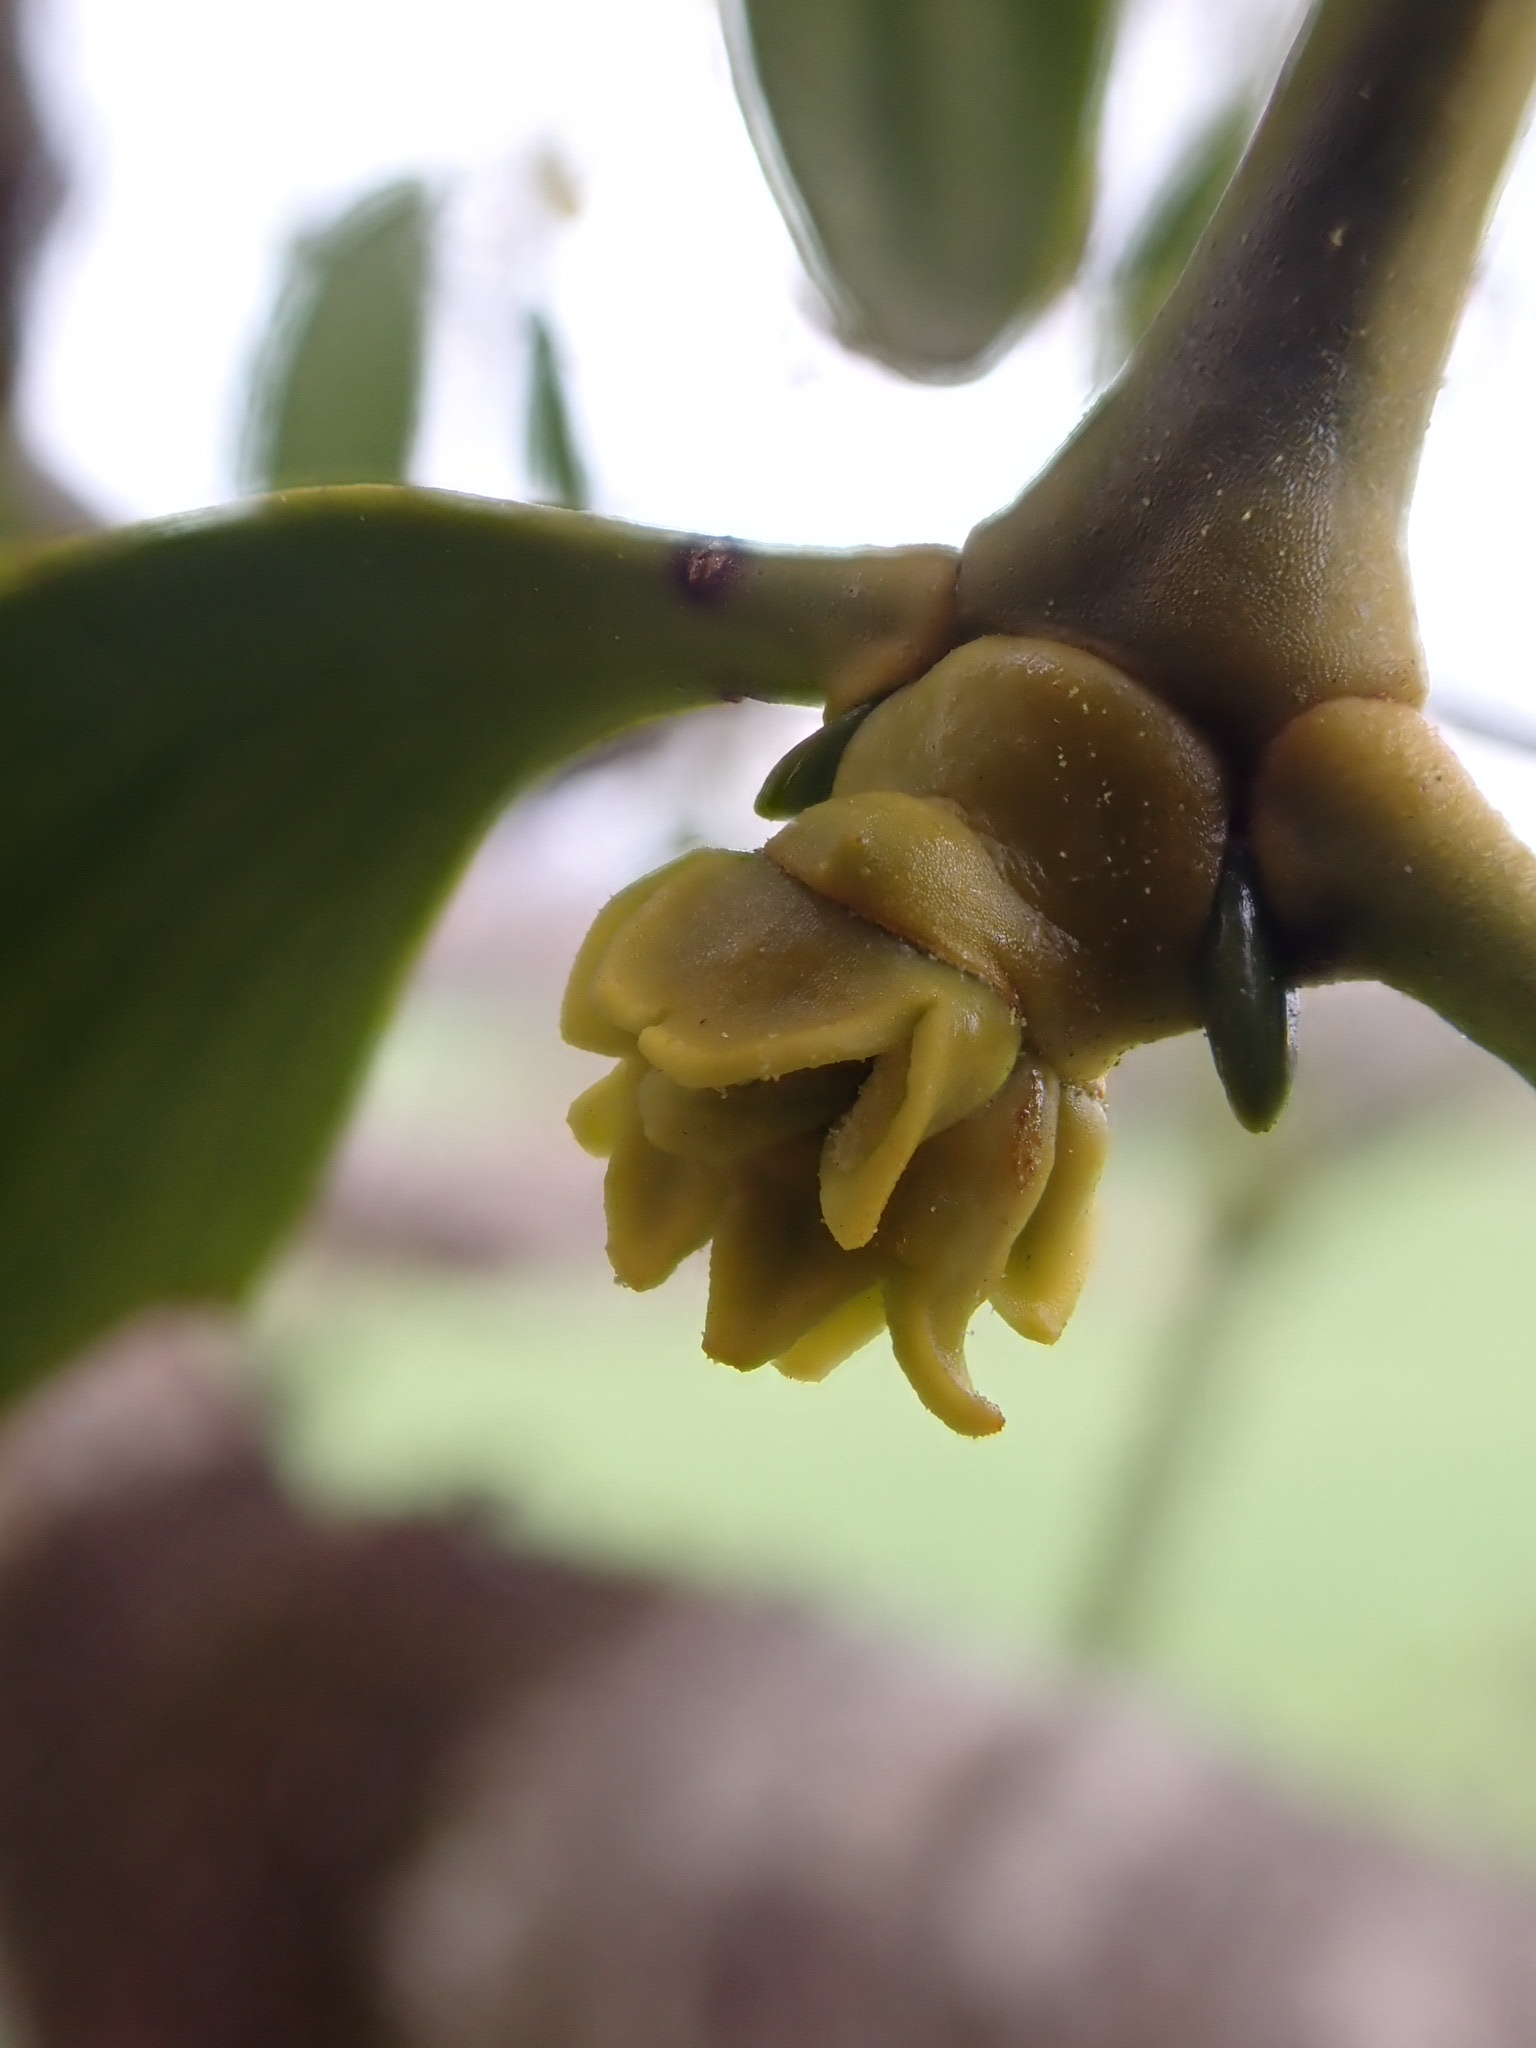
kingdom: Plantae
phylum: Tracheophyta
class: Magnoliopsida
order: Santalales
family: Viscaceae
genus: Viscum
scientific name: Viscum album
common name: Mistletoe
